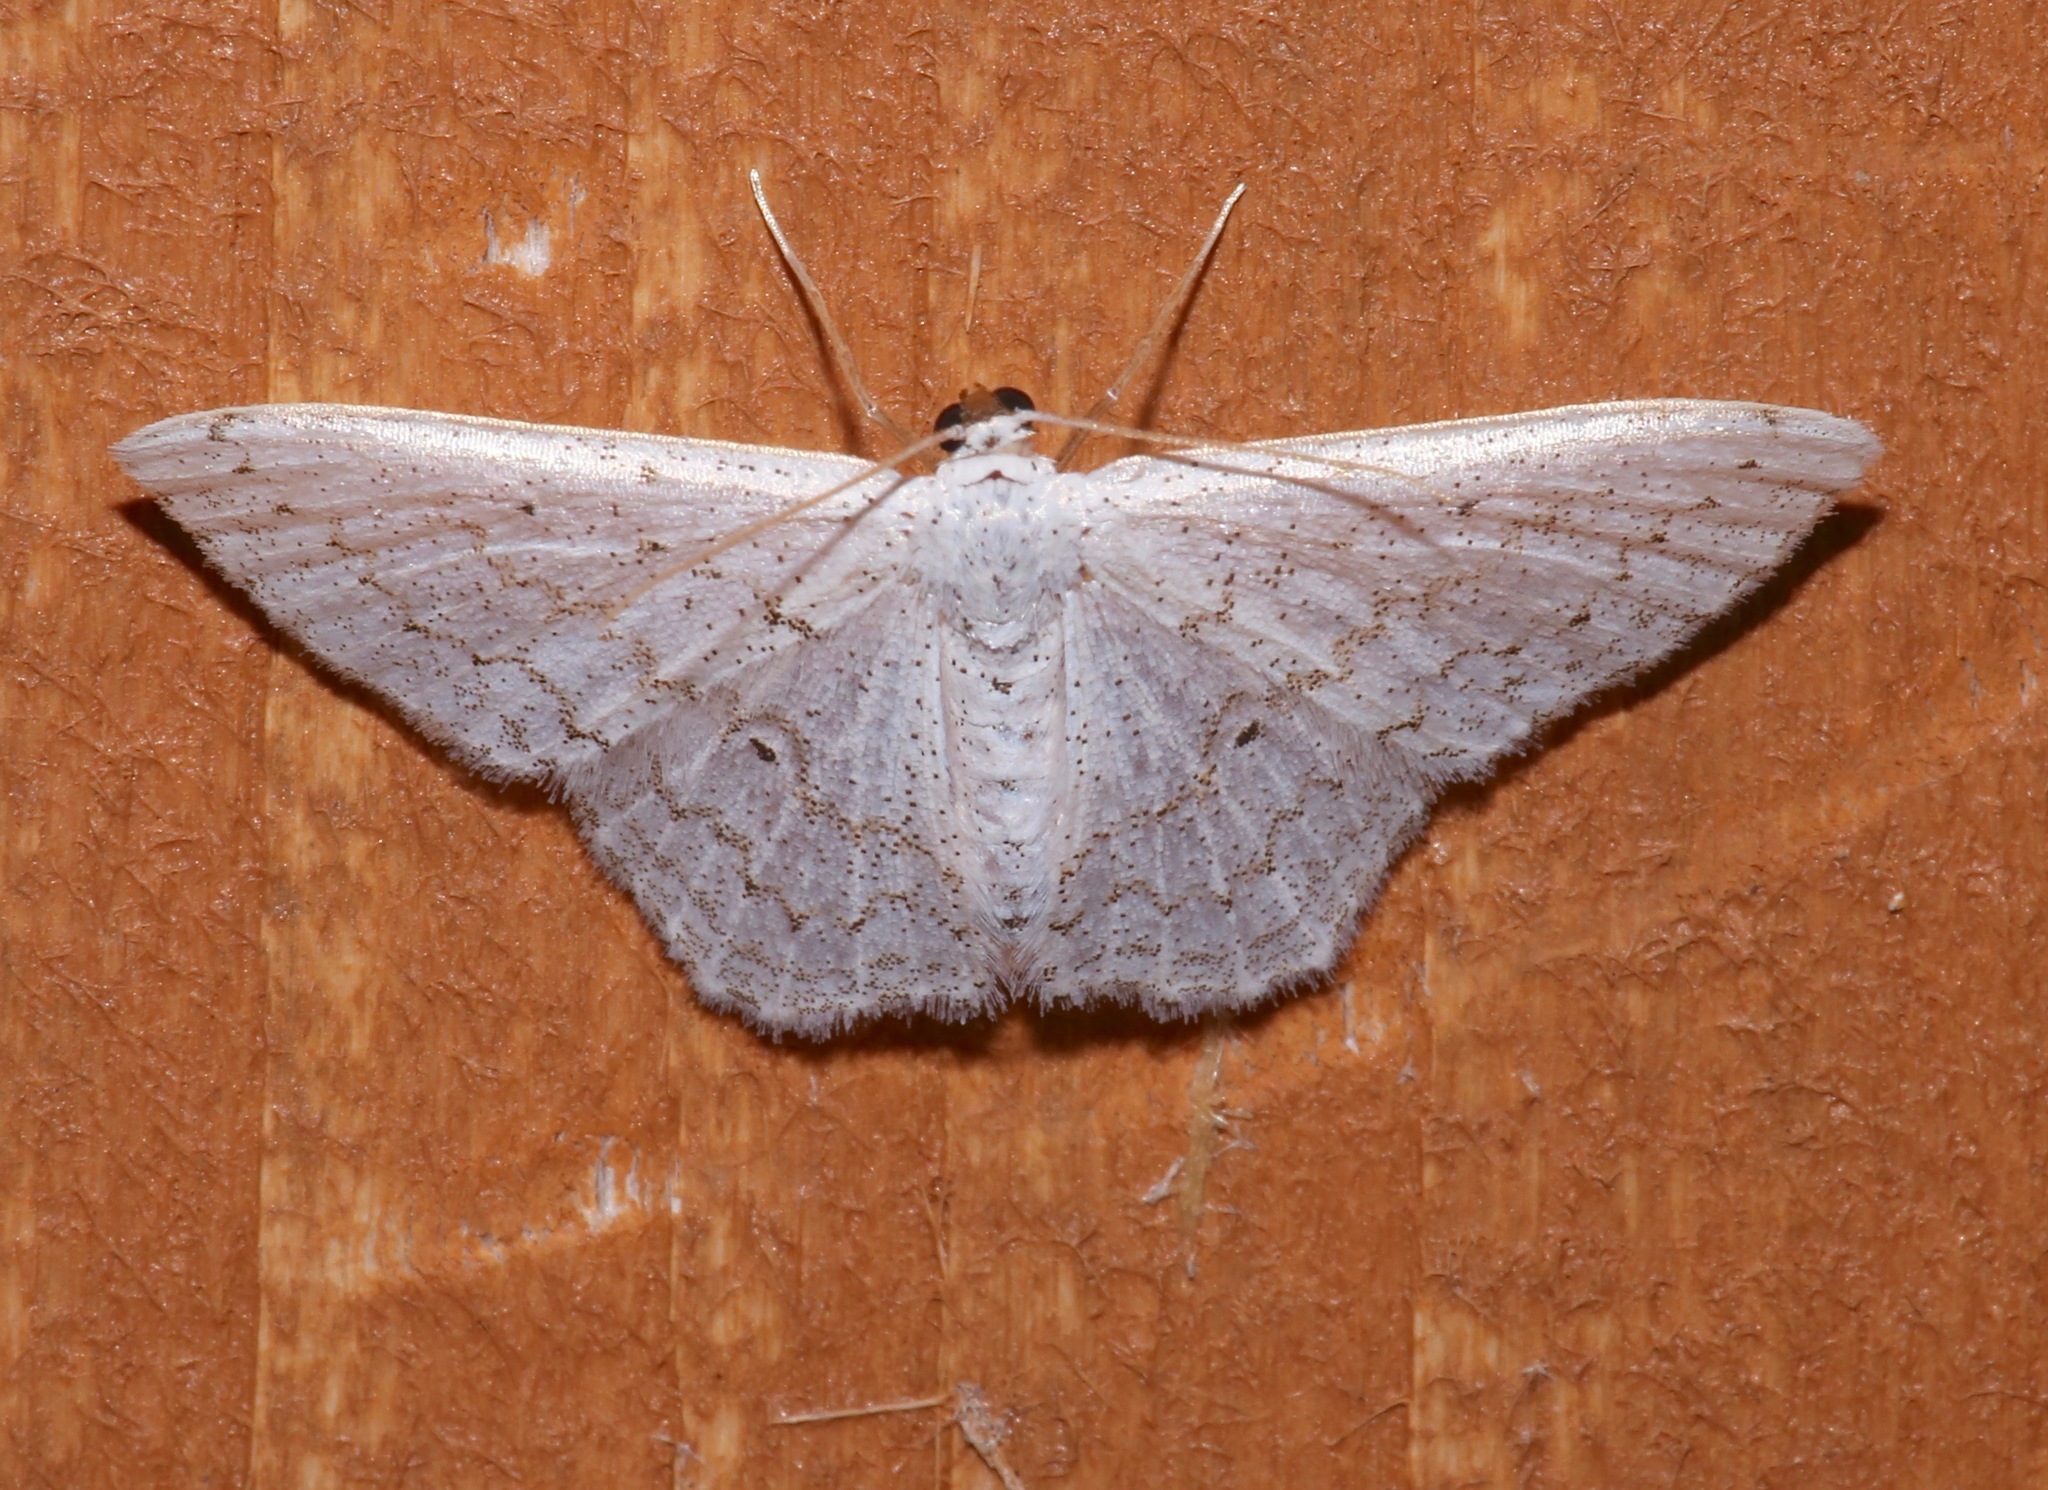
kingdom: Animalia
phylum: Arthropoda
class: Insecta
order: Lepidoptera
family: Geometridae
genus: Idaea
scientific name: Idaea tacturata
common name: Dot-lined wave
